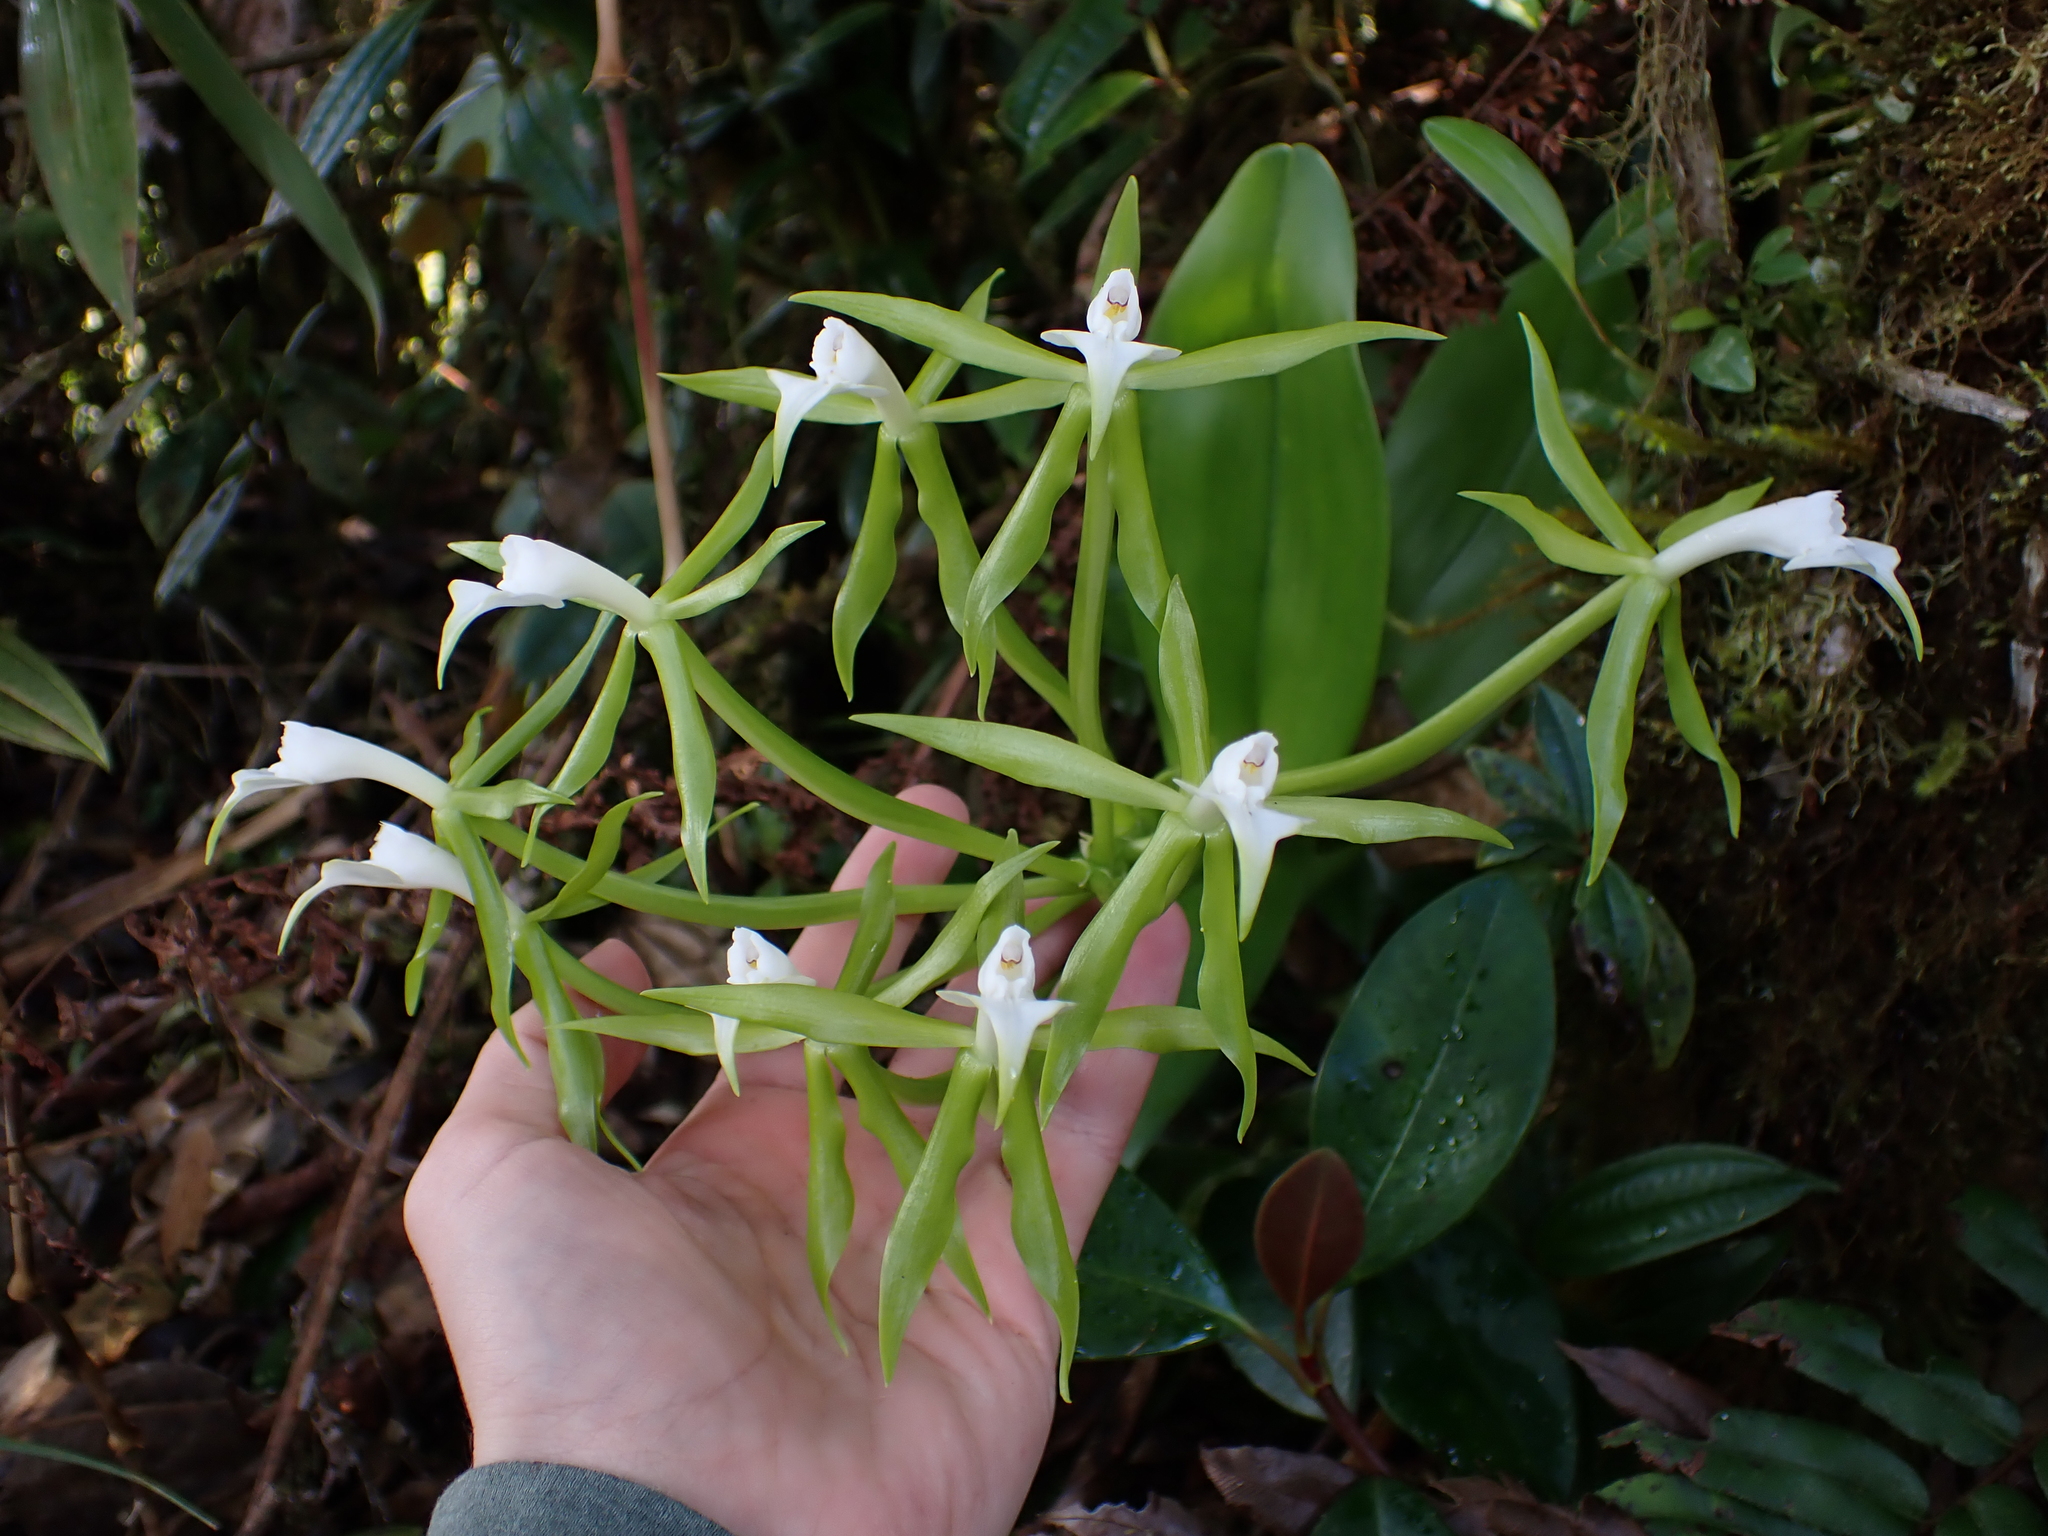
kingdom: Plantae
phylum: Tracheophyta
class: Liliopsida
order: Asparagales
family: Orchidaceae
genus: Epidendrum
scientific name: Epidendrum lacustre
